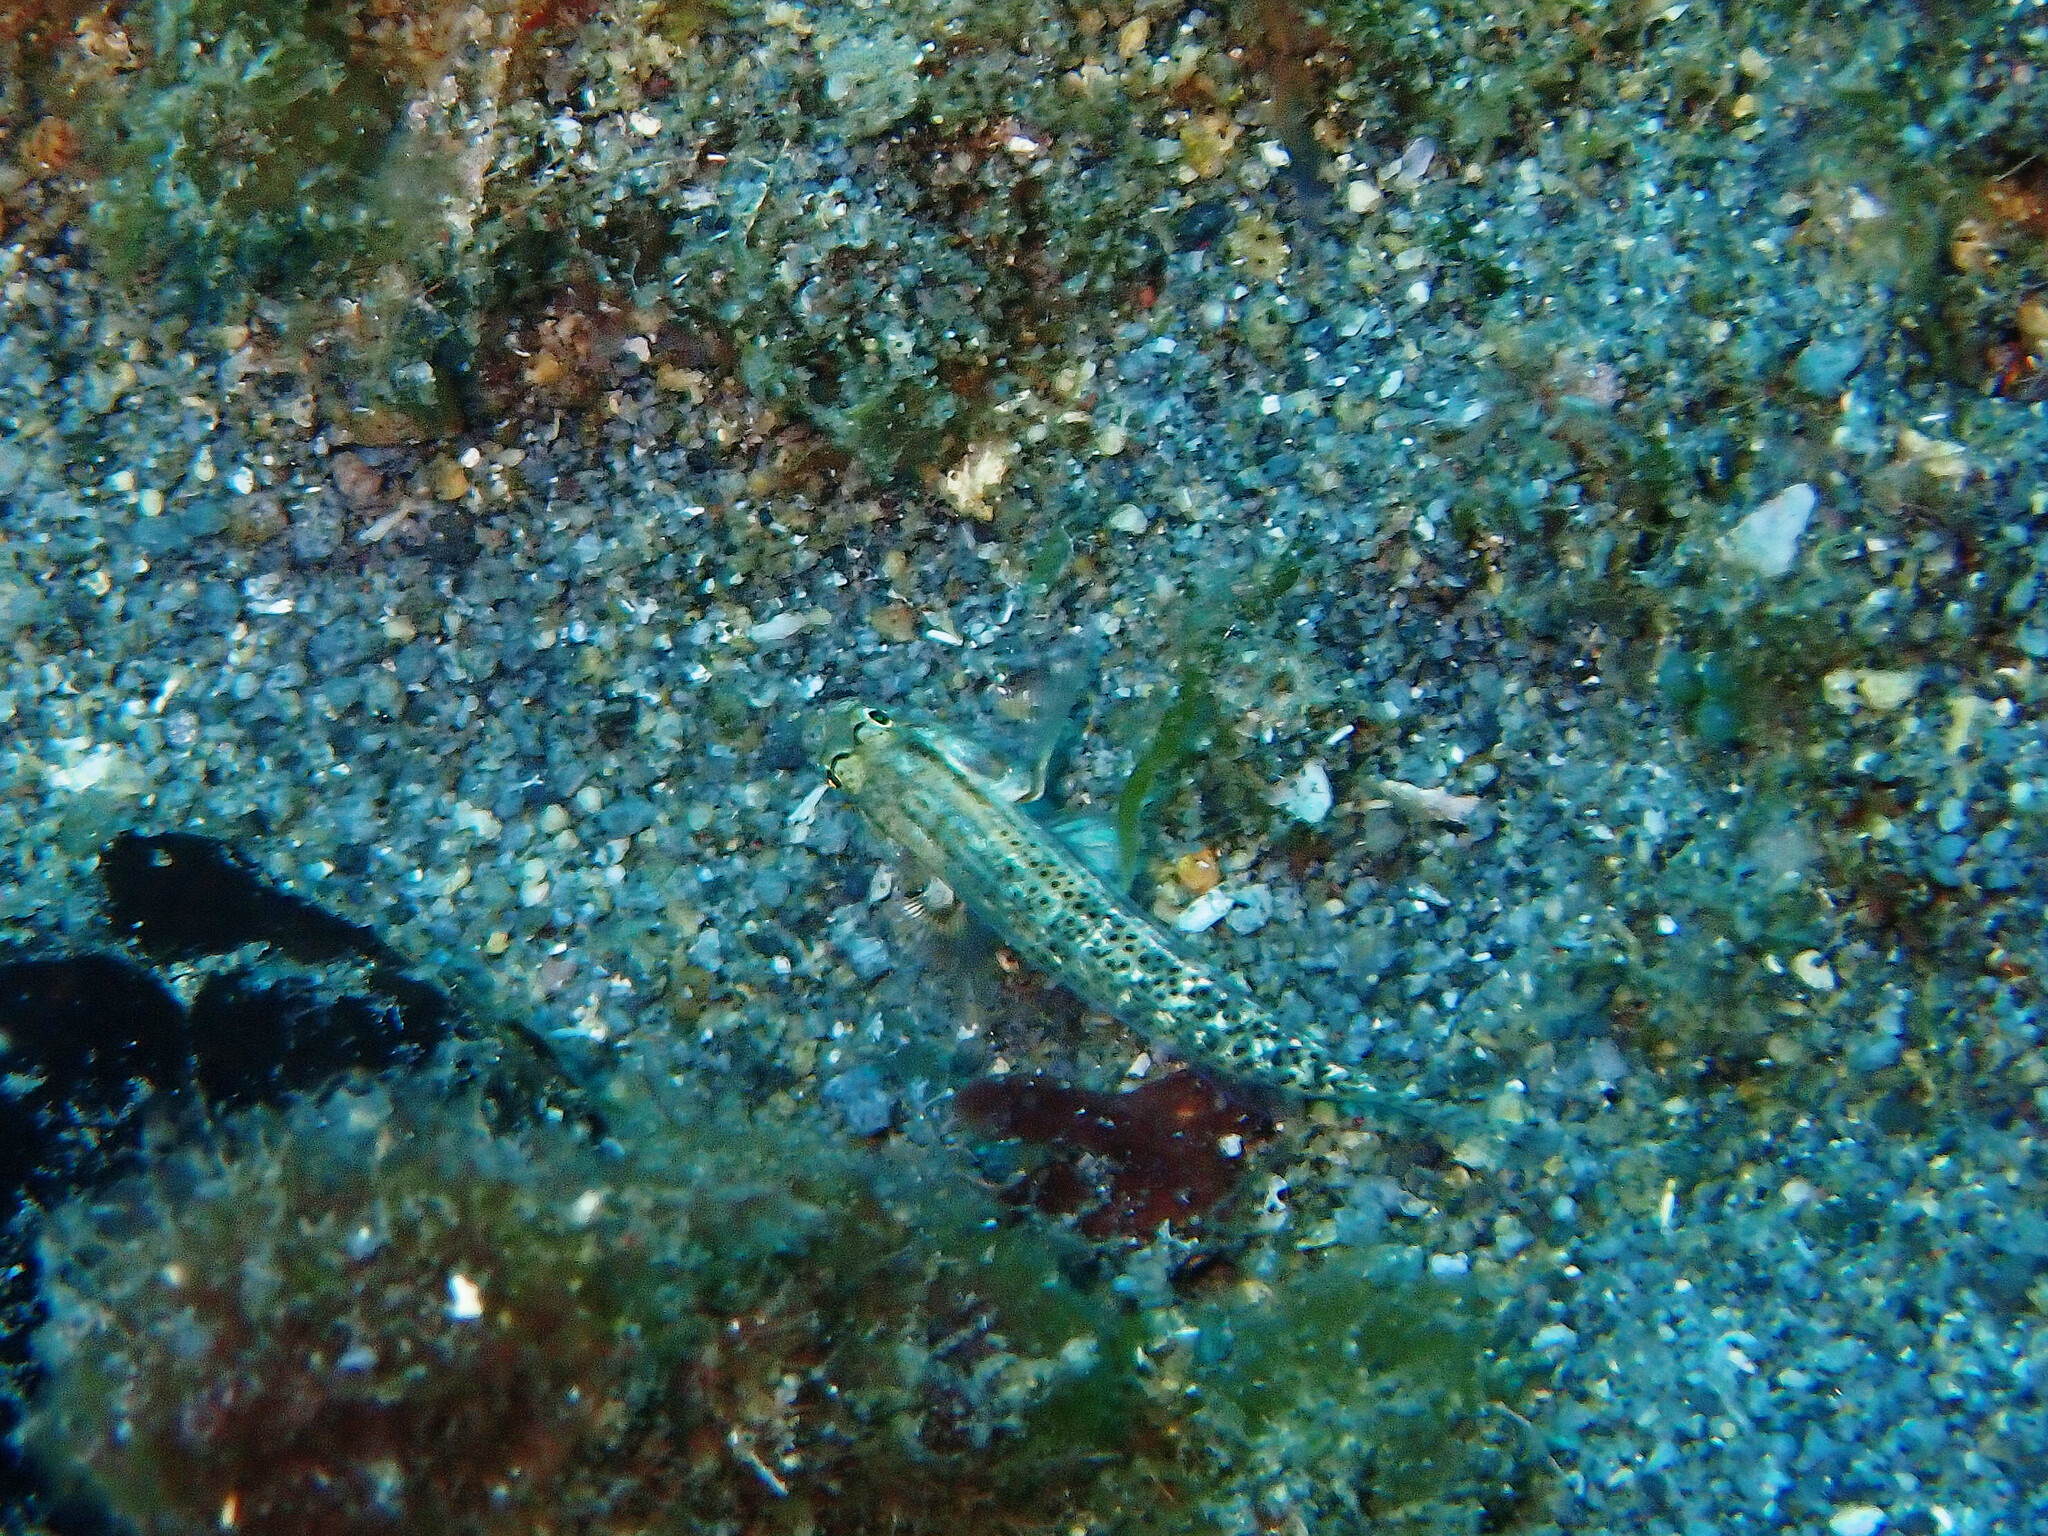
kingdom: Animalia
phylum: Chordata
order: Perciformes
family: Gobiidae
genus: Gnatholepis
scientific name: Gnatholepis thompsoni
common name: Goldspot goby
